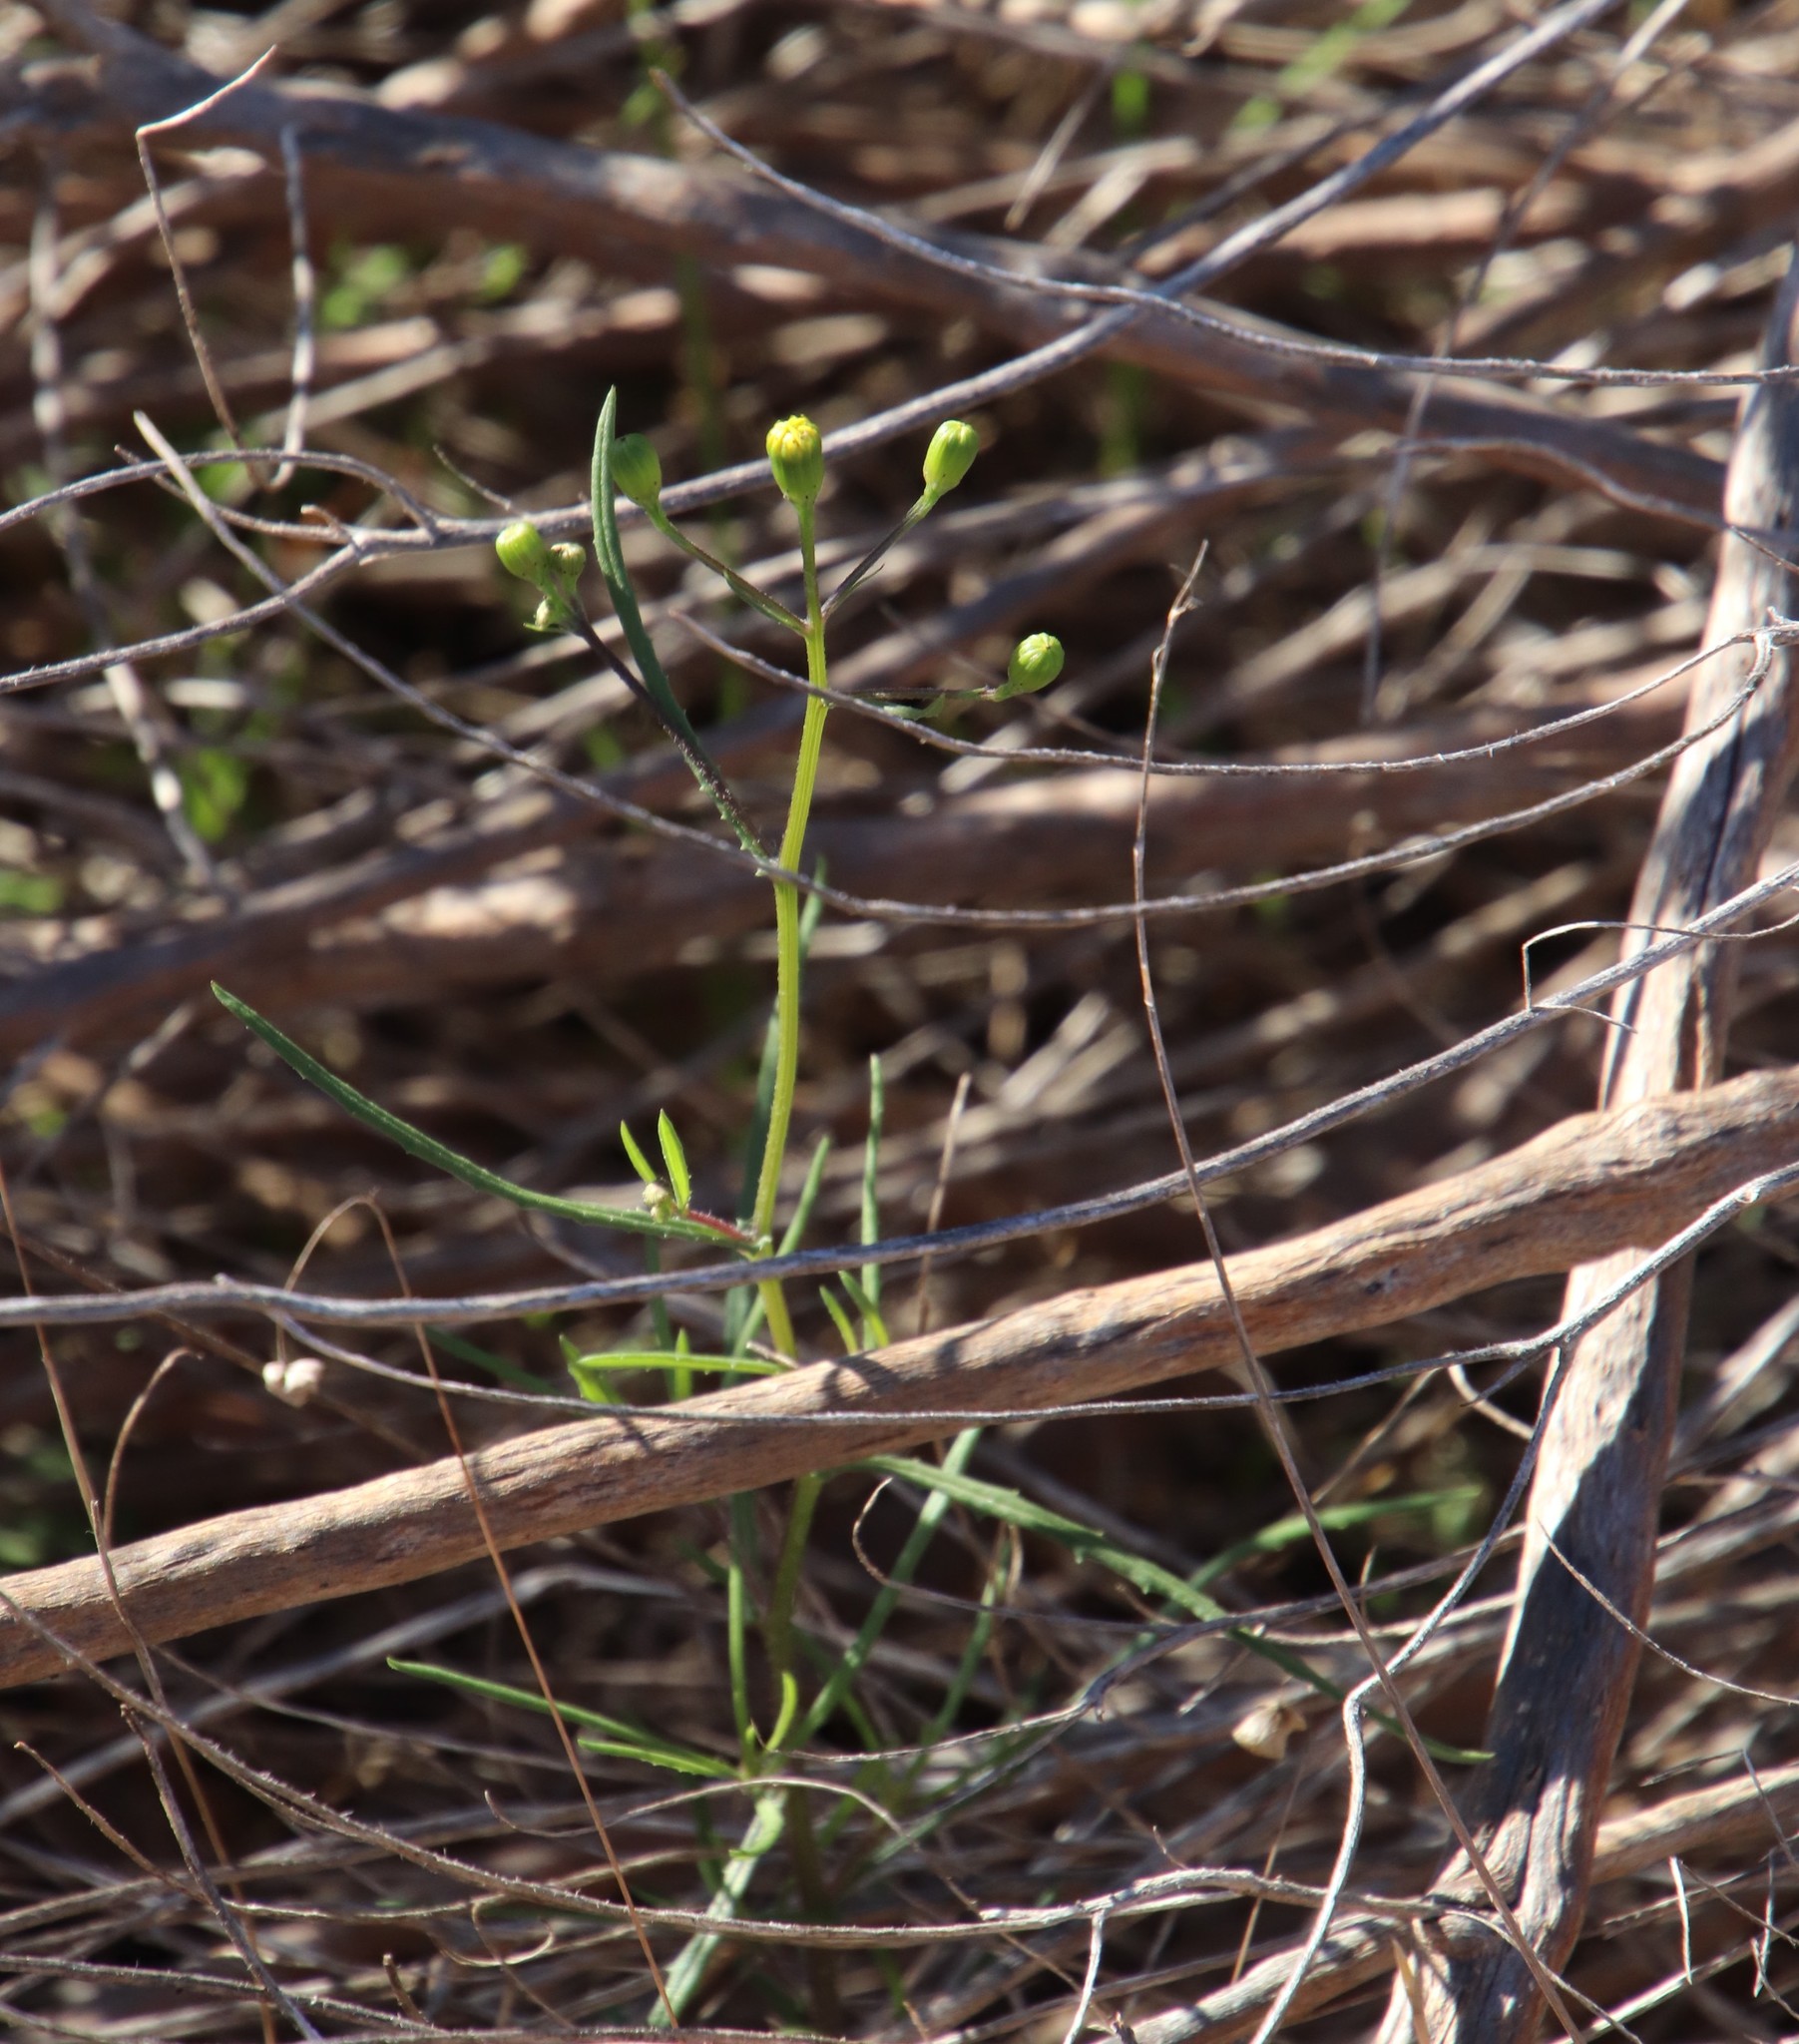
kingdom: Plantae
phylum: Tracheophyta
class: Magnoliopsida
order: Asterales
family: Asteraceae
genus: Senecio
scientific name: Senecio burchellii
